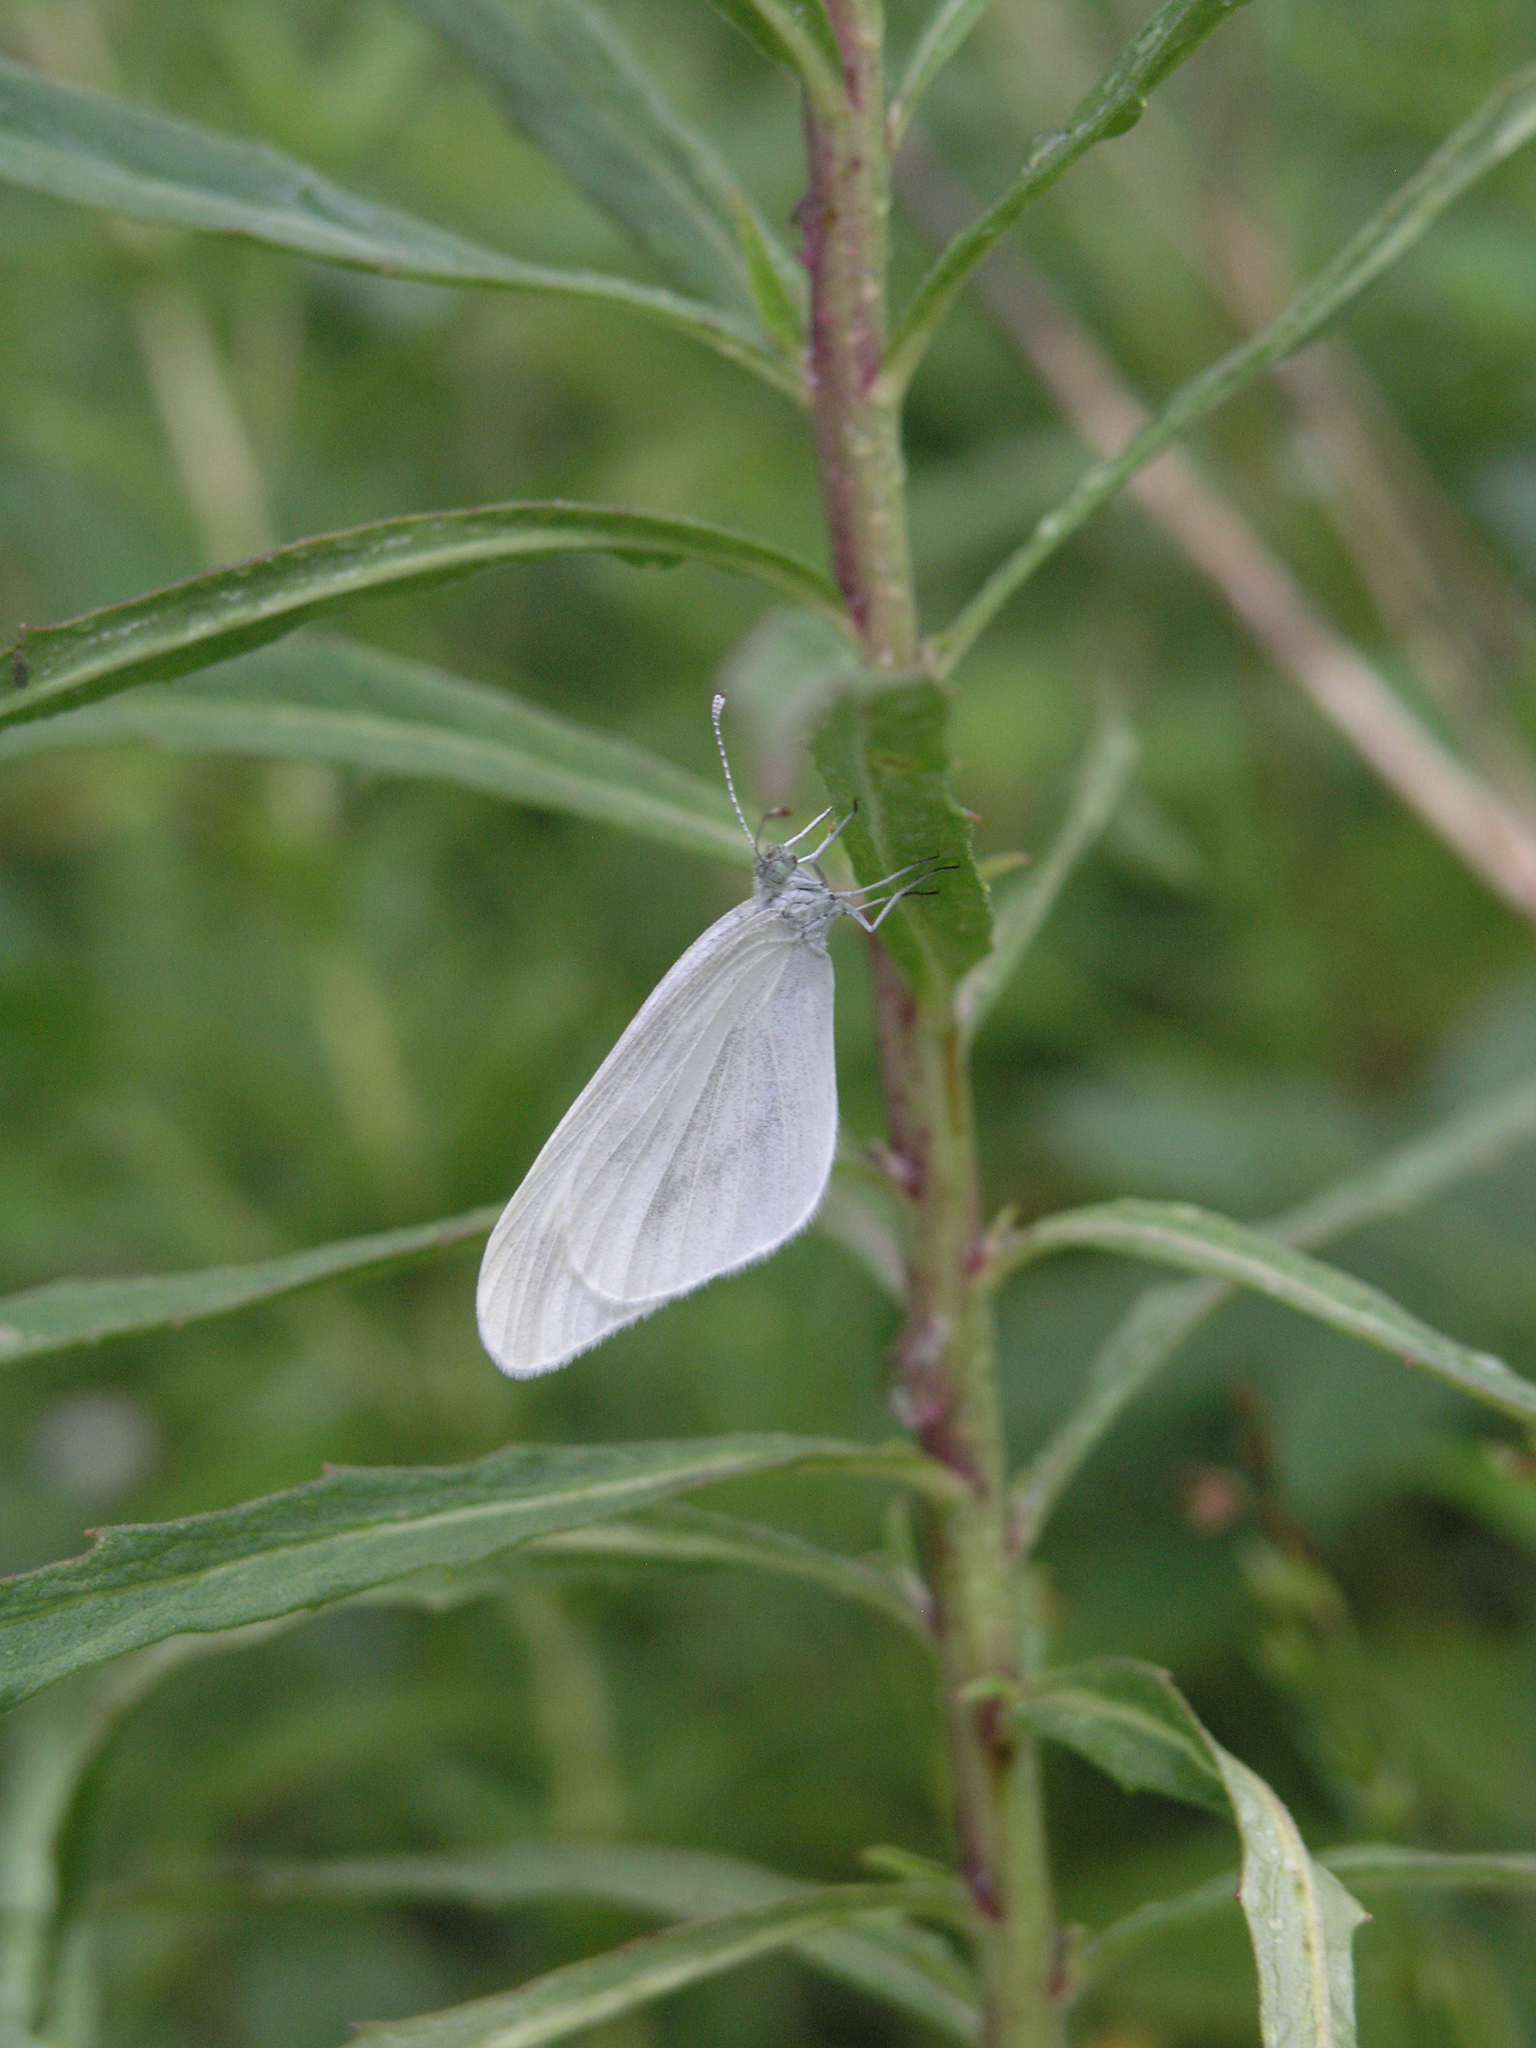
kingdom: Animalia
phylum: Arthropoda
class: Insecta
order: Lepidoptera
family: Pieridae
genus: Leptidea
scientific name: Leptidea amurensis
